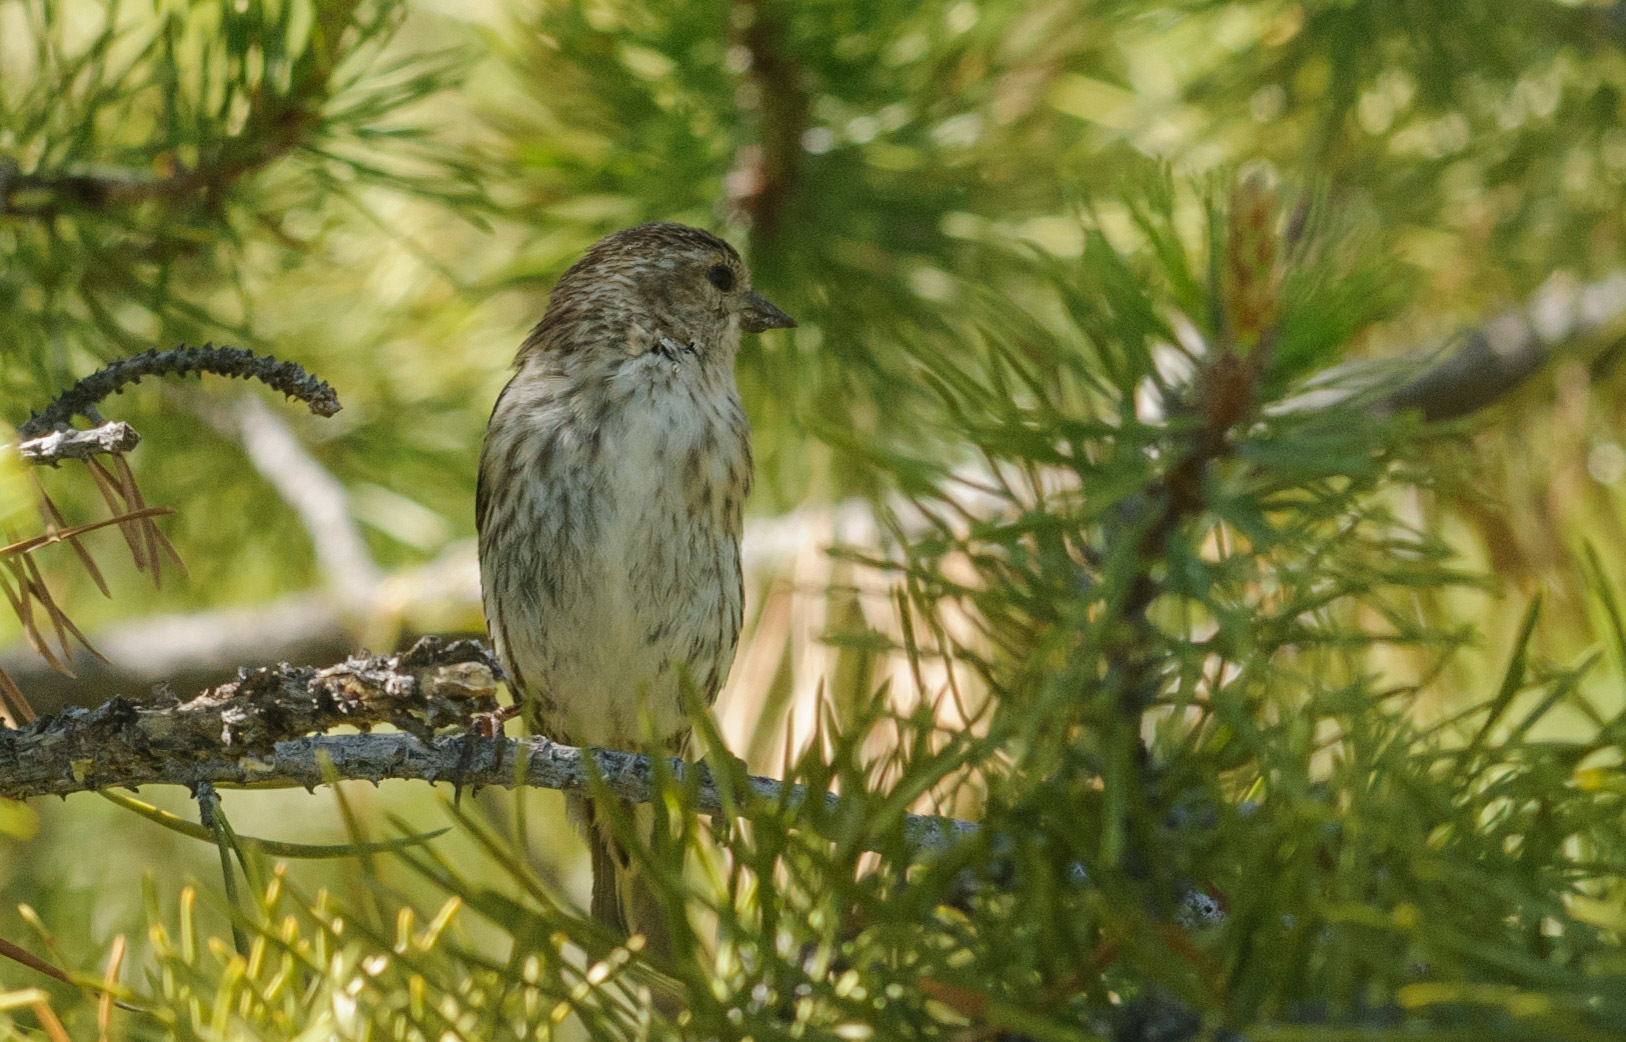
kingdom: Animalia
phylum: Chordata
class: Aves
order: Passeriformes
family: Fringillidae
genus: Spinus
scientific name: Spinus pinus
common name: Pine siskin
